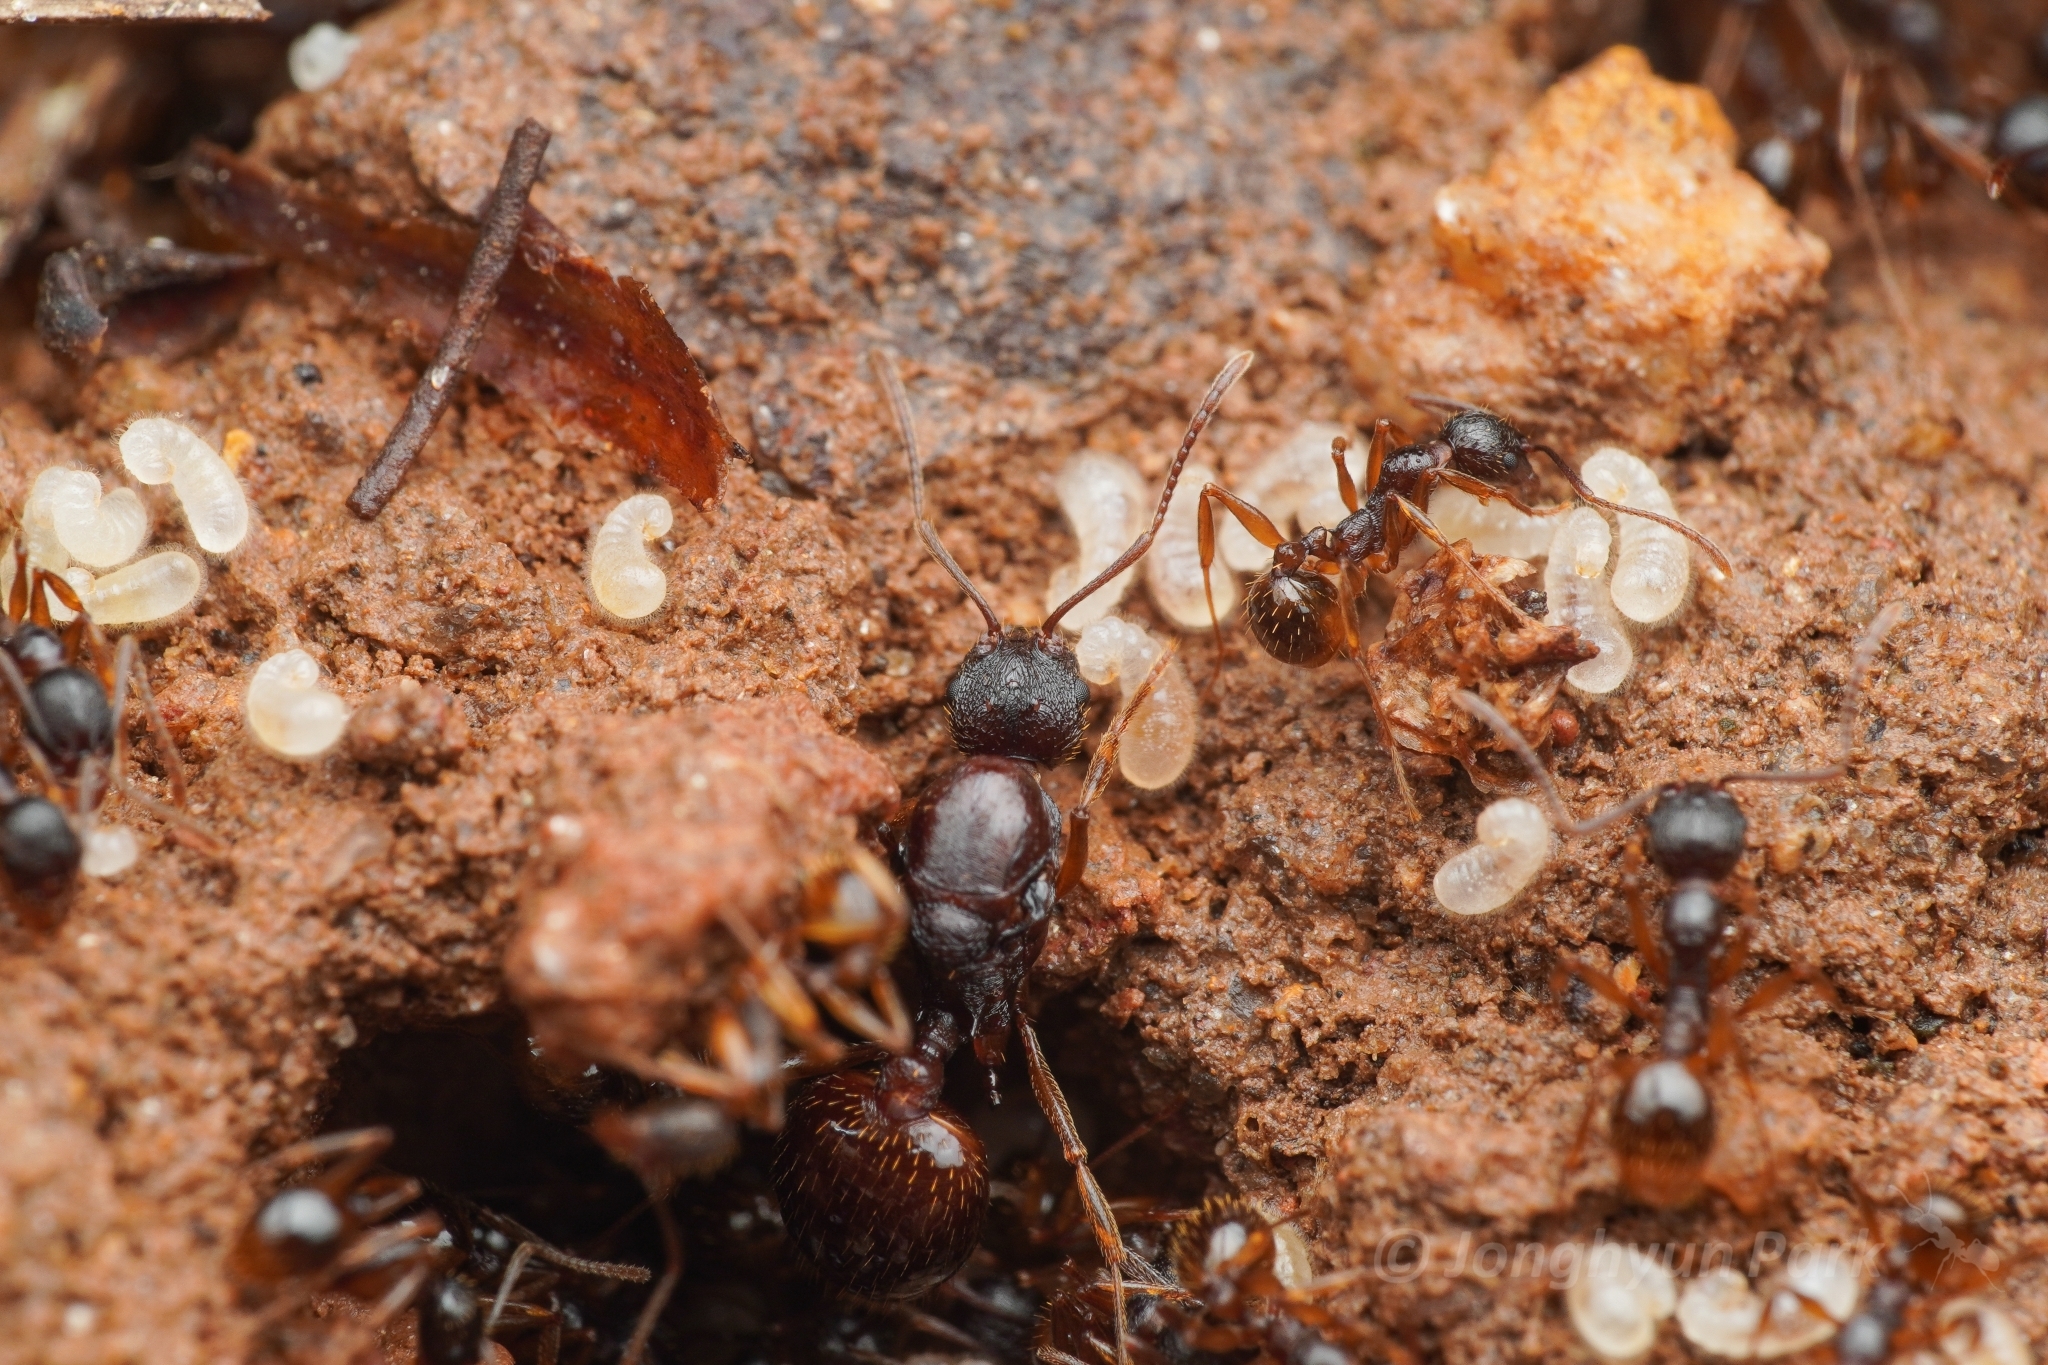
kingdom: Animalia
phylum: Arthropoda
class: Insecta
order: Hymenoptera
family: Formicidae
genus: Aphaenogaster
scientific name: Aphaenogaster japonica
